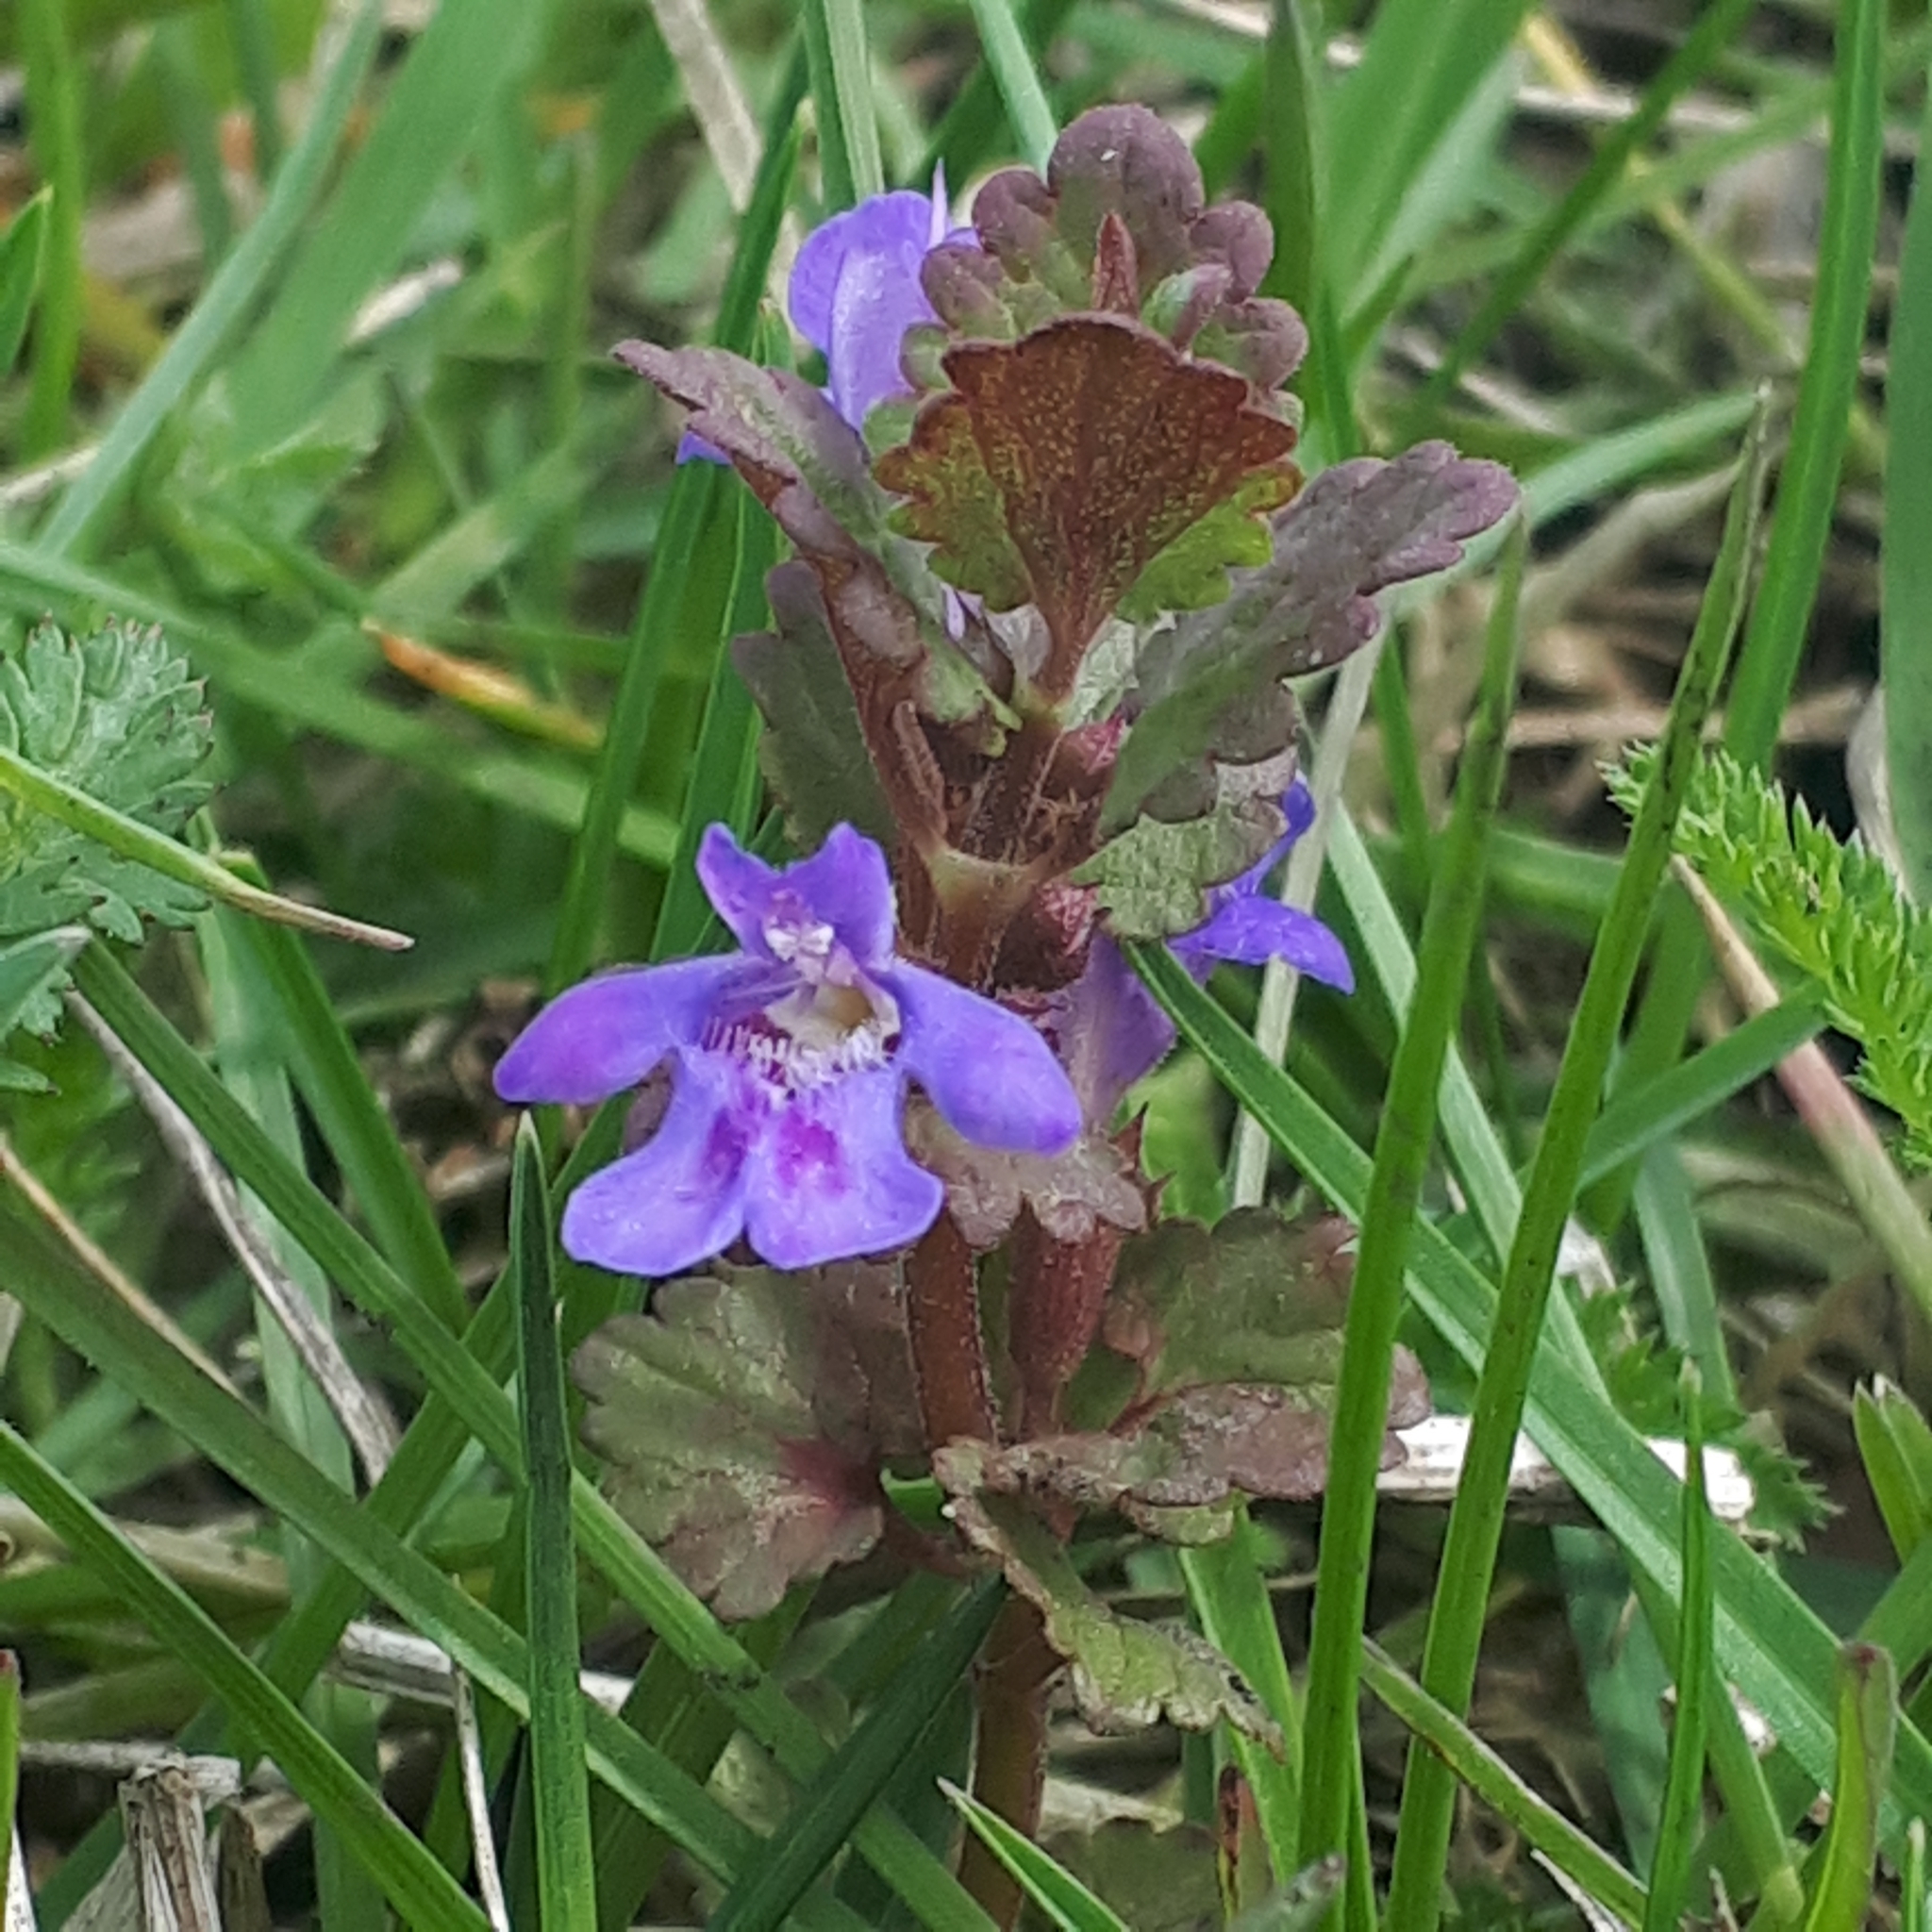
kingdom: Plantae
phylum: Tracheophyta
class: Magnoliopsida
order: Lamiales
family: Lamiaceae
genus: Glechoma
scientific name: Glechoma hederacea
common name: Ground ivy
